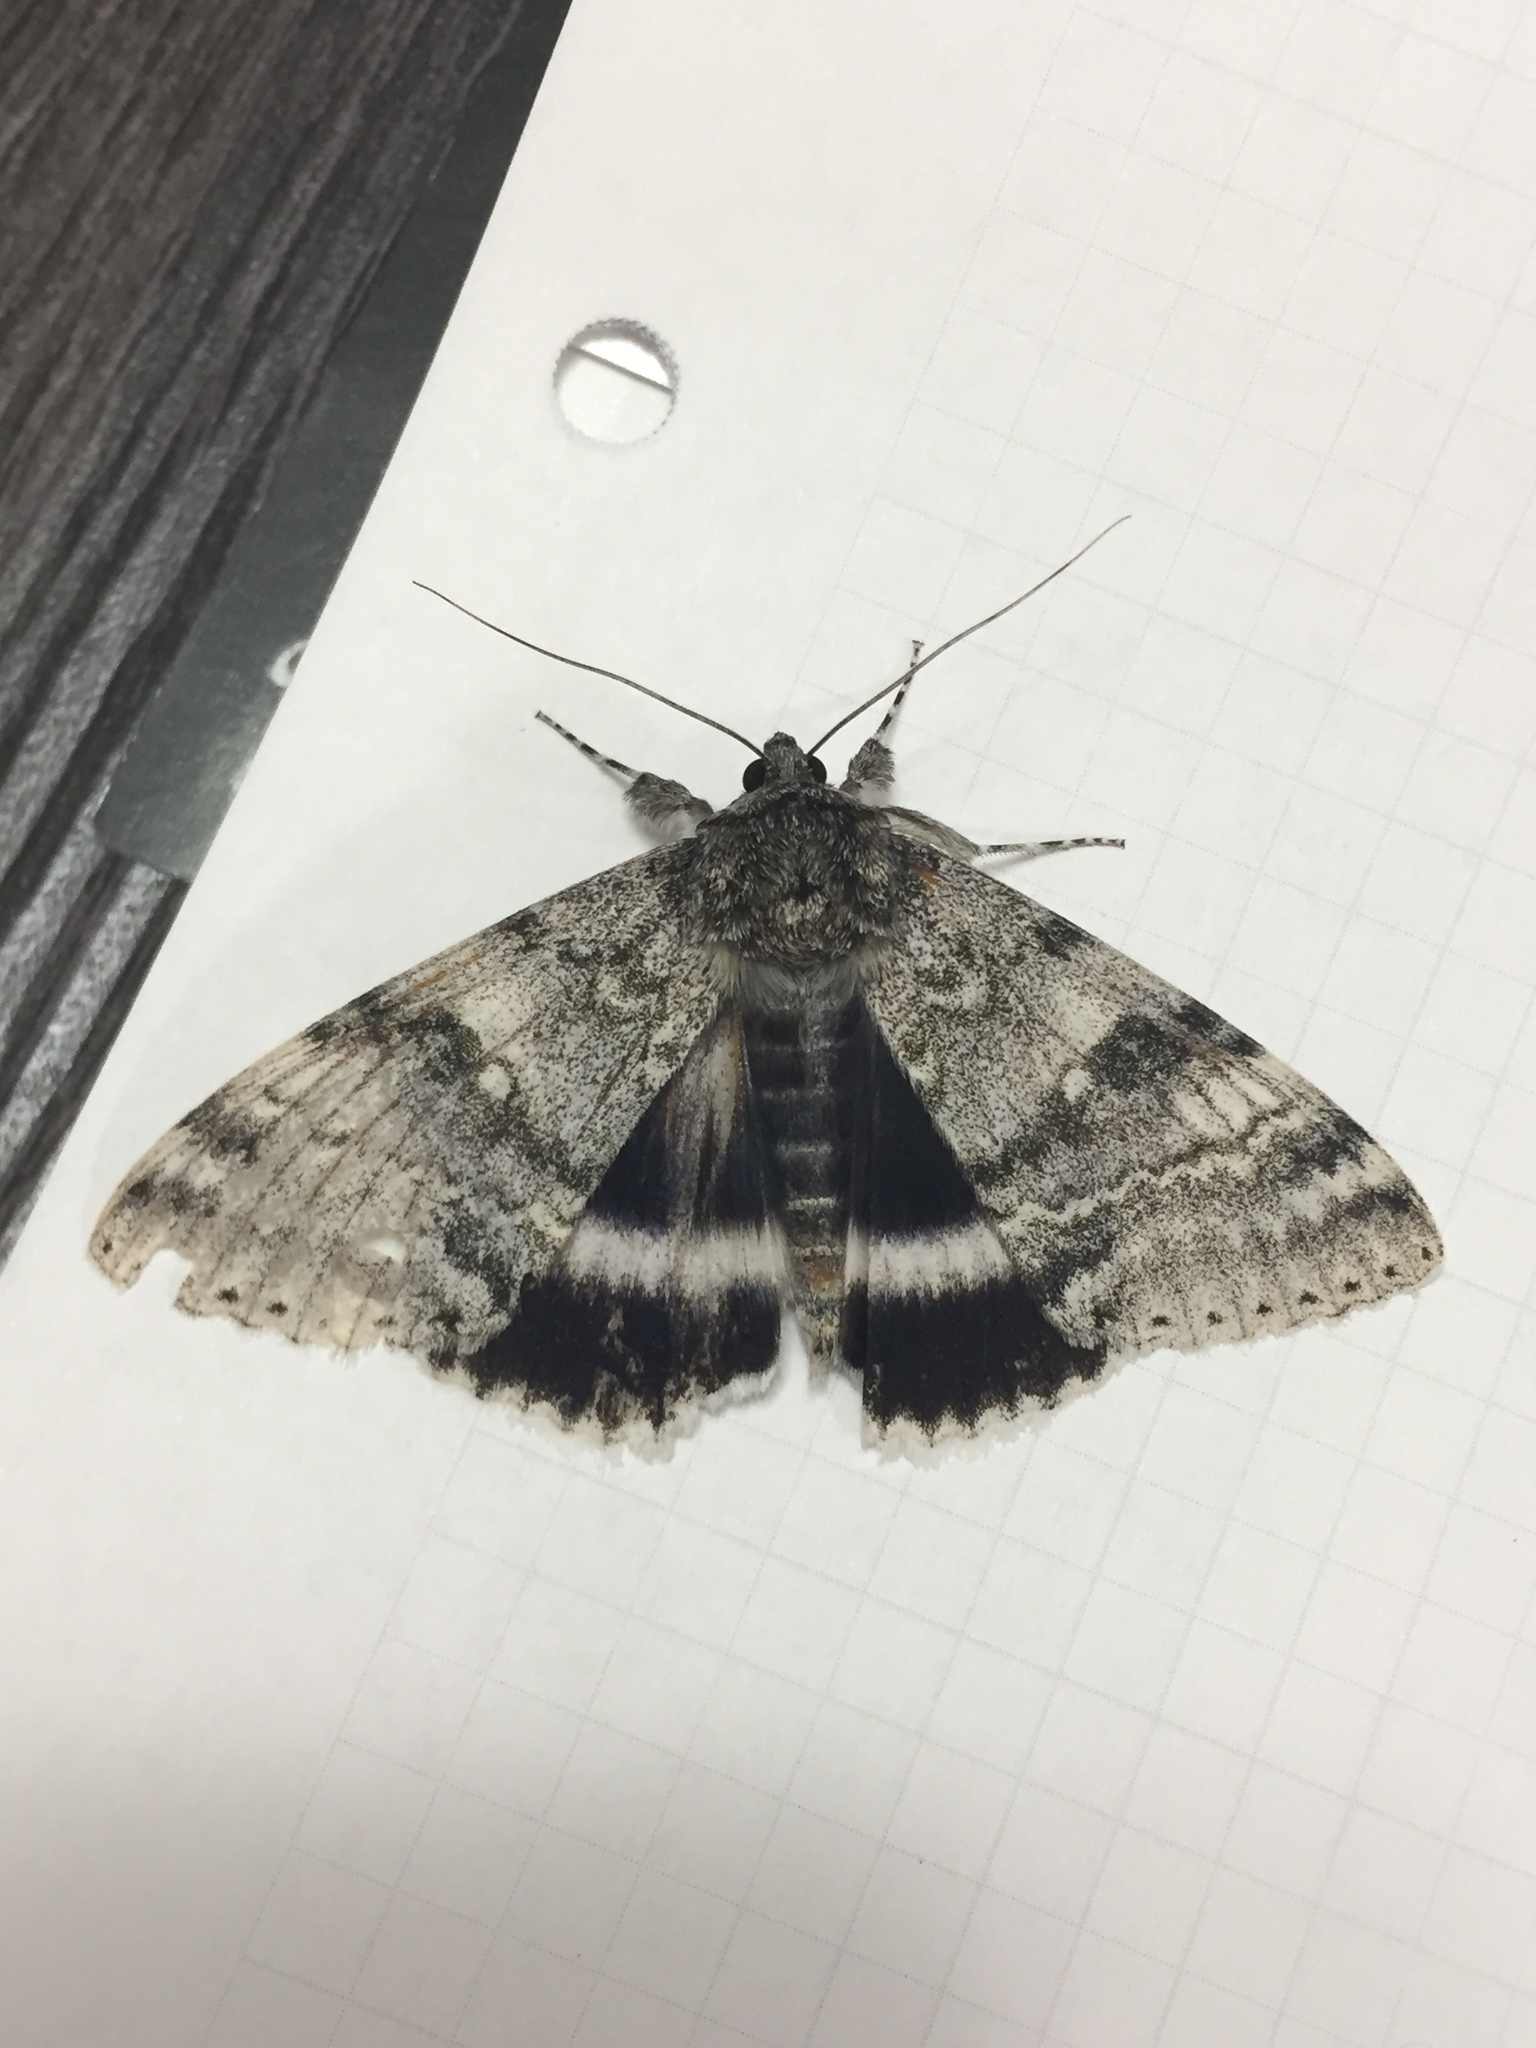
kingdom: Animalia
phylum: Arthropoda
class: Insecta
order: Lepidoptera
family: Erebidae
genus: Catocala
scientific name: Catocala relicta
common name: White underwing
